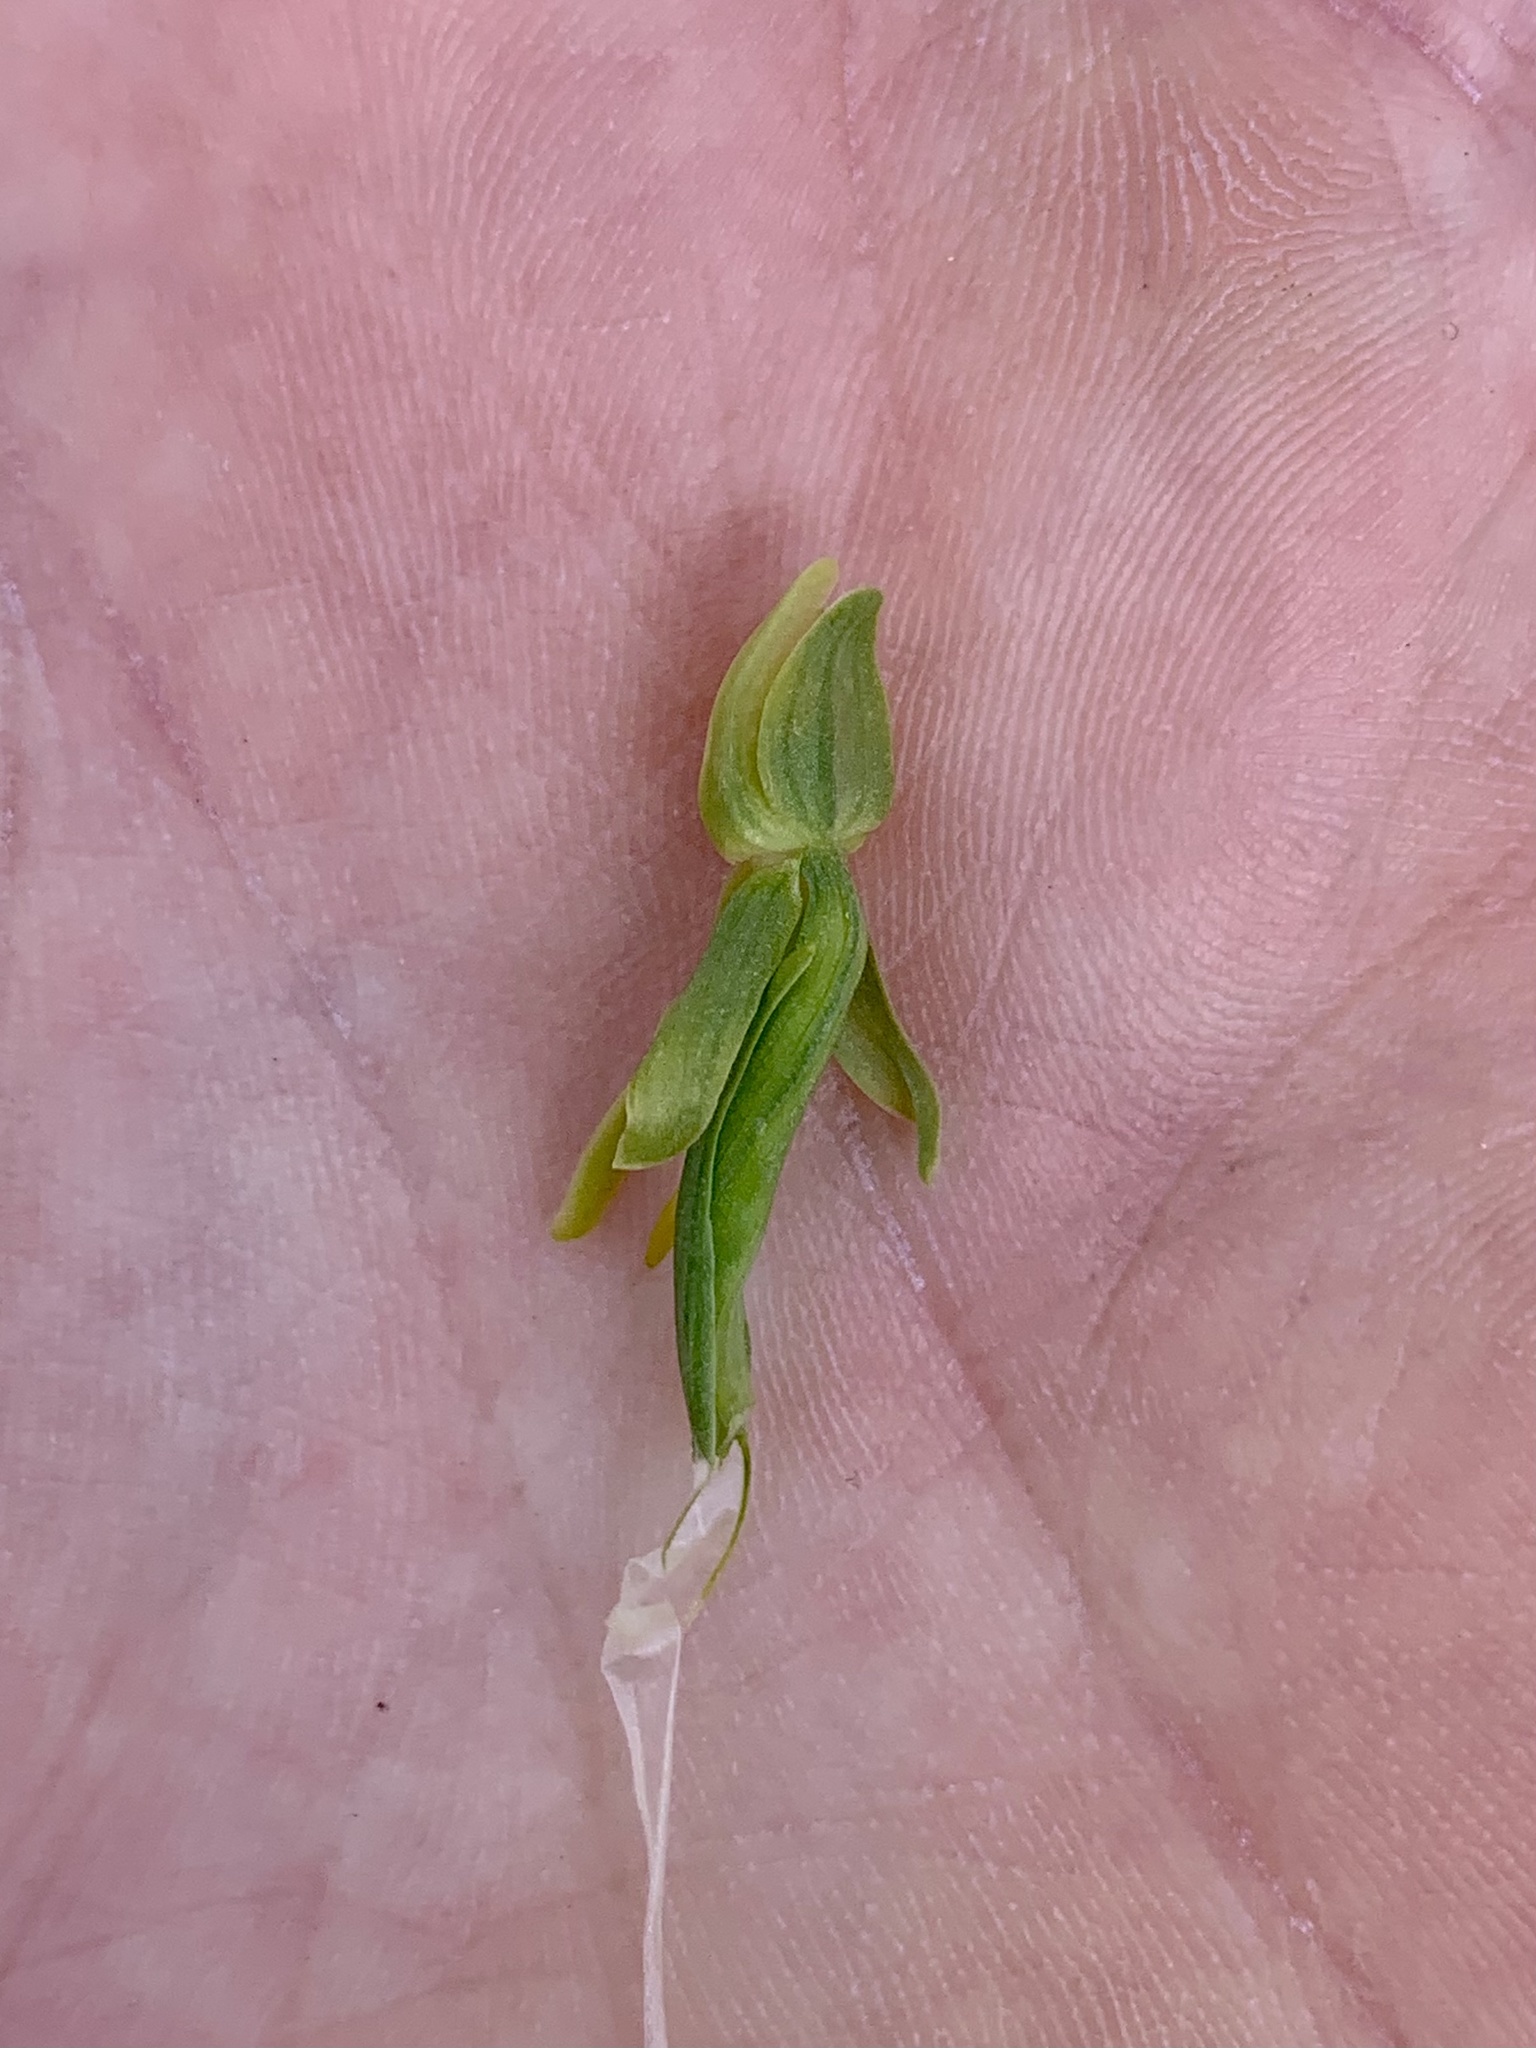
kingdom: Plantae
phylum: Tracheophyta
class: Liliopsida
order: Asparagales
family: Orchidaceae
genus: Platanthera
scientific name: Platanthera sparsiflora
